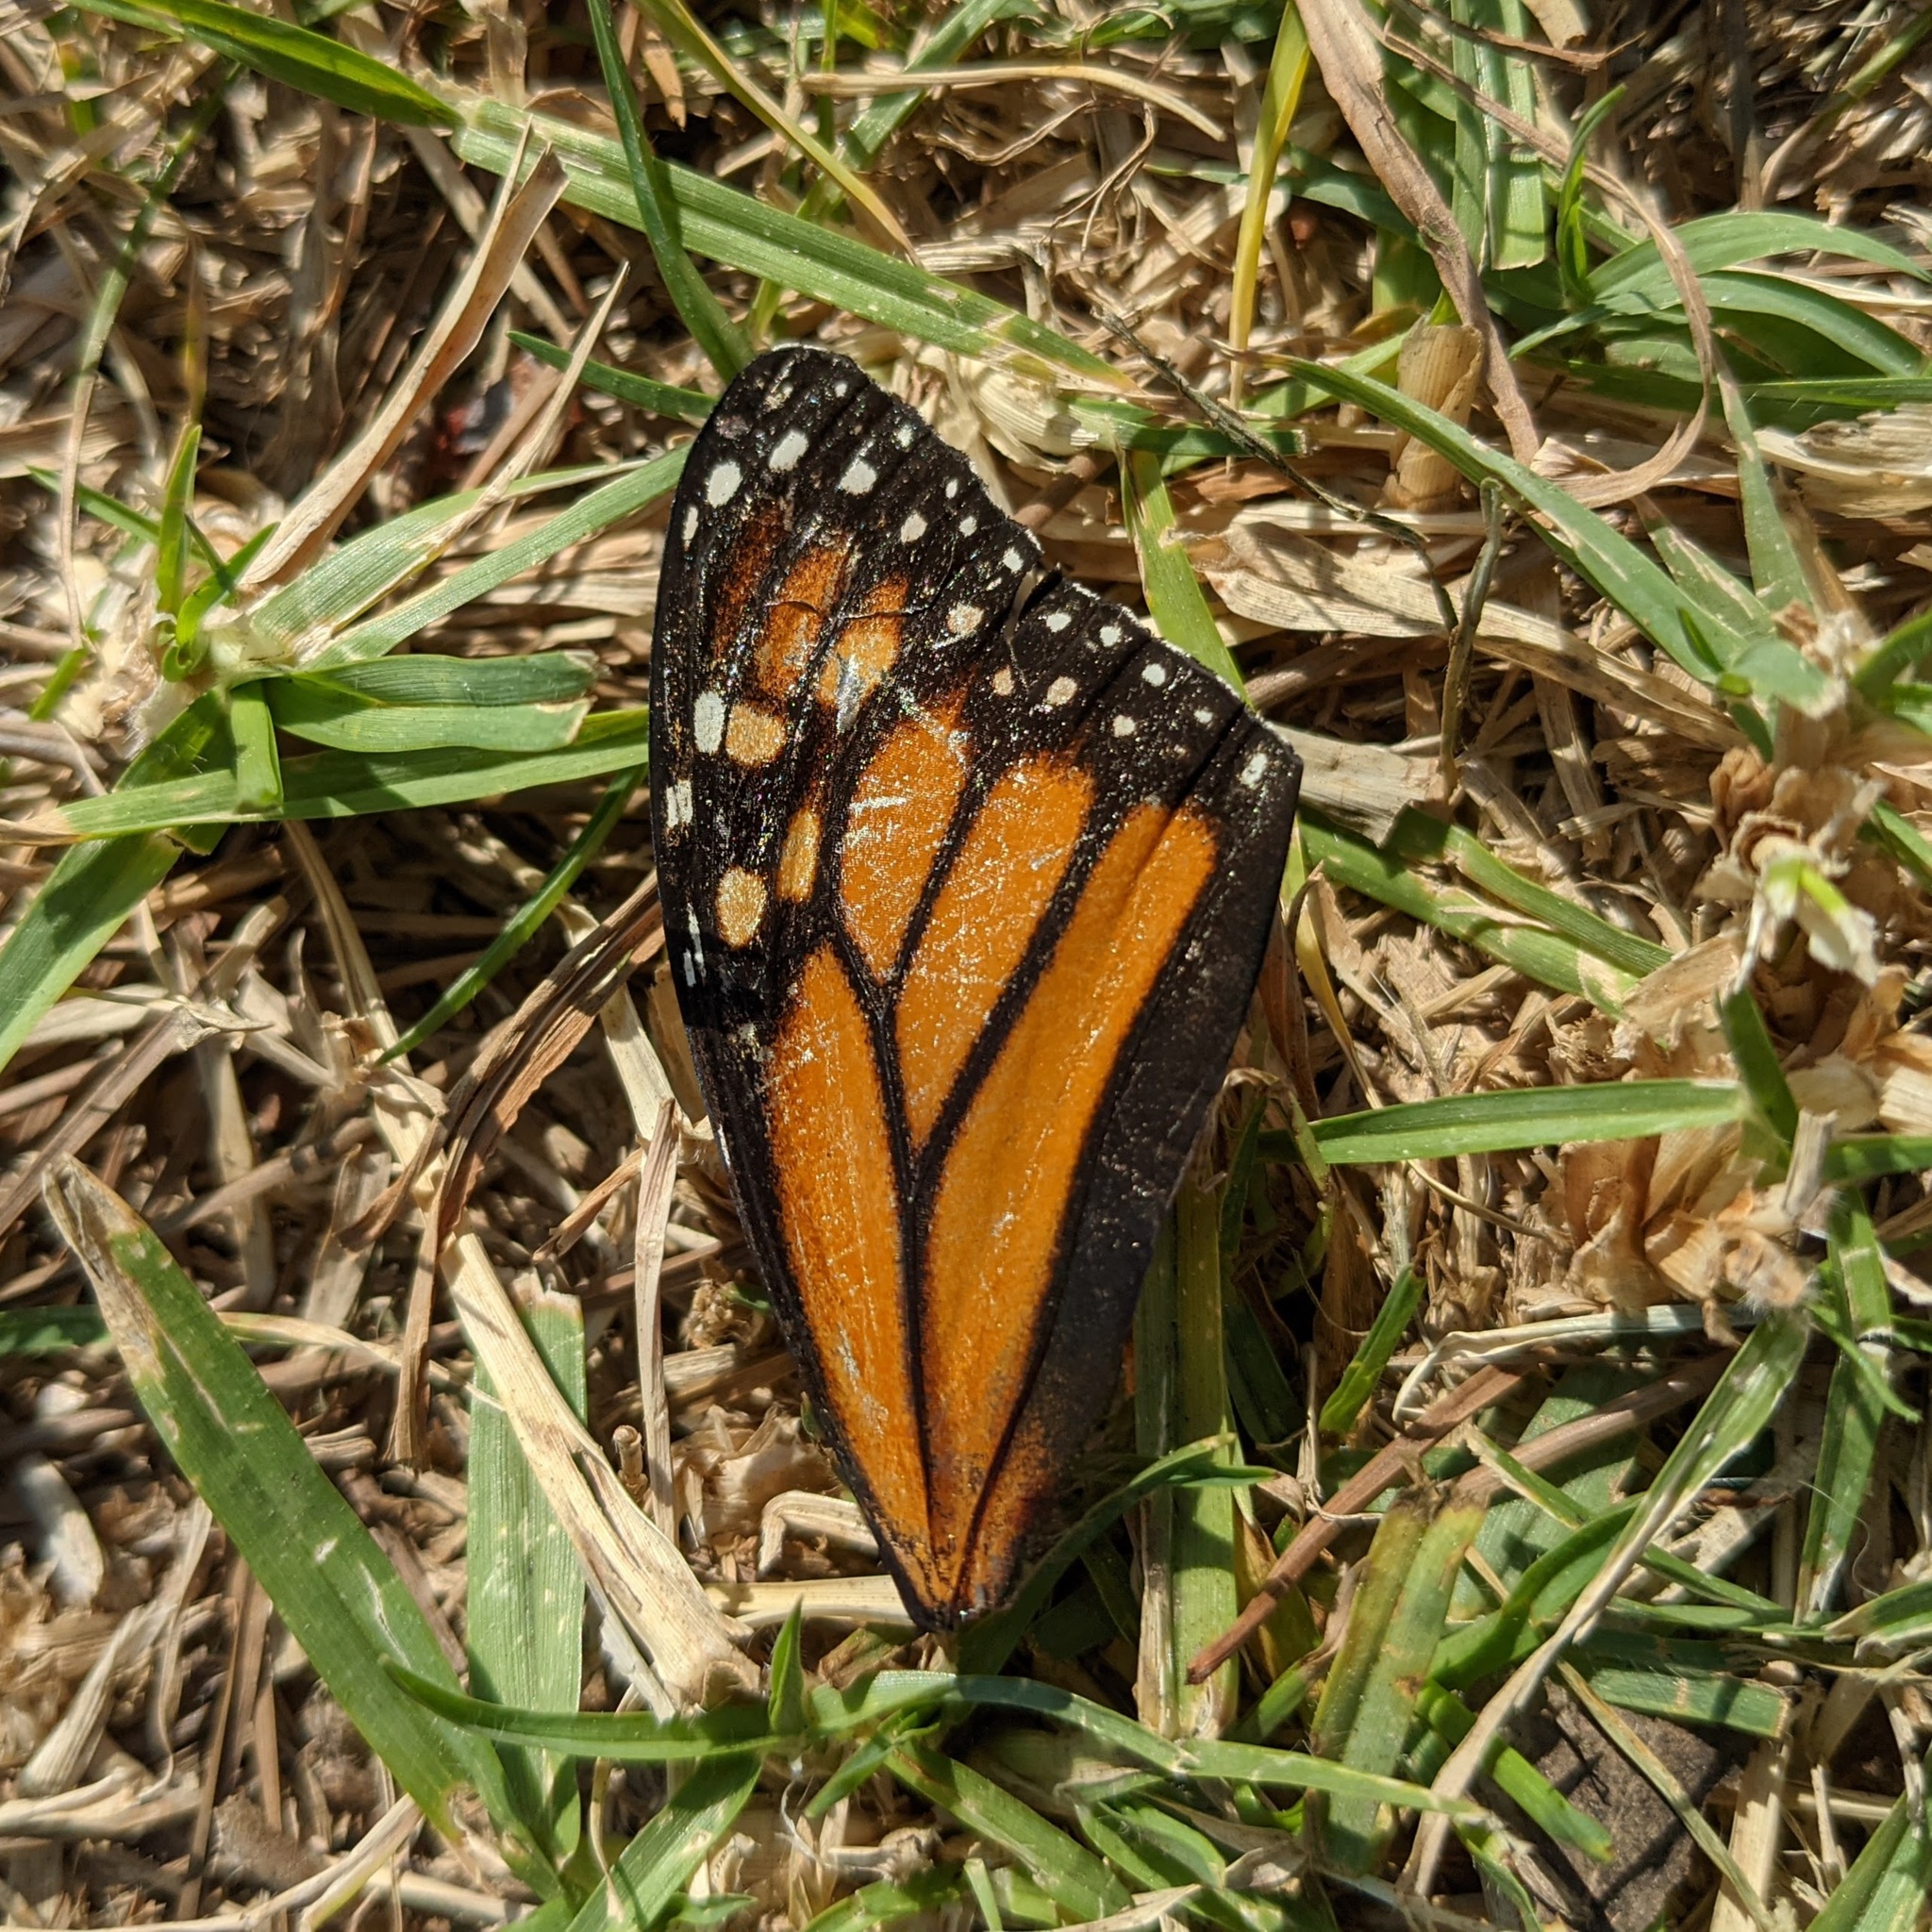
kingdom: Animalia
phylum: Arthropoda
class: Insecta
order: Lepidoptera
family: Nymphalidae
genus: Danaus
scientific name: Danaus plexippus
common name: Monarch
